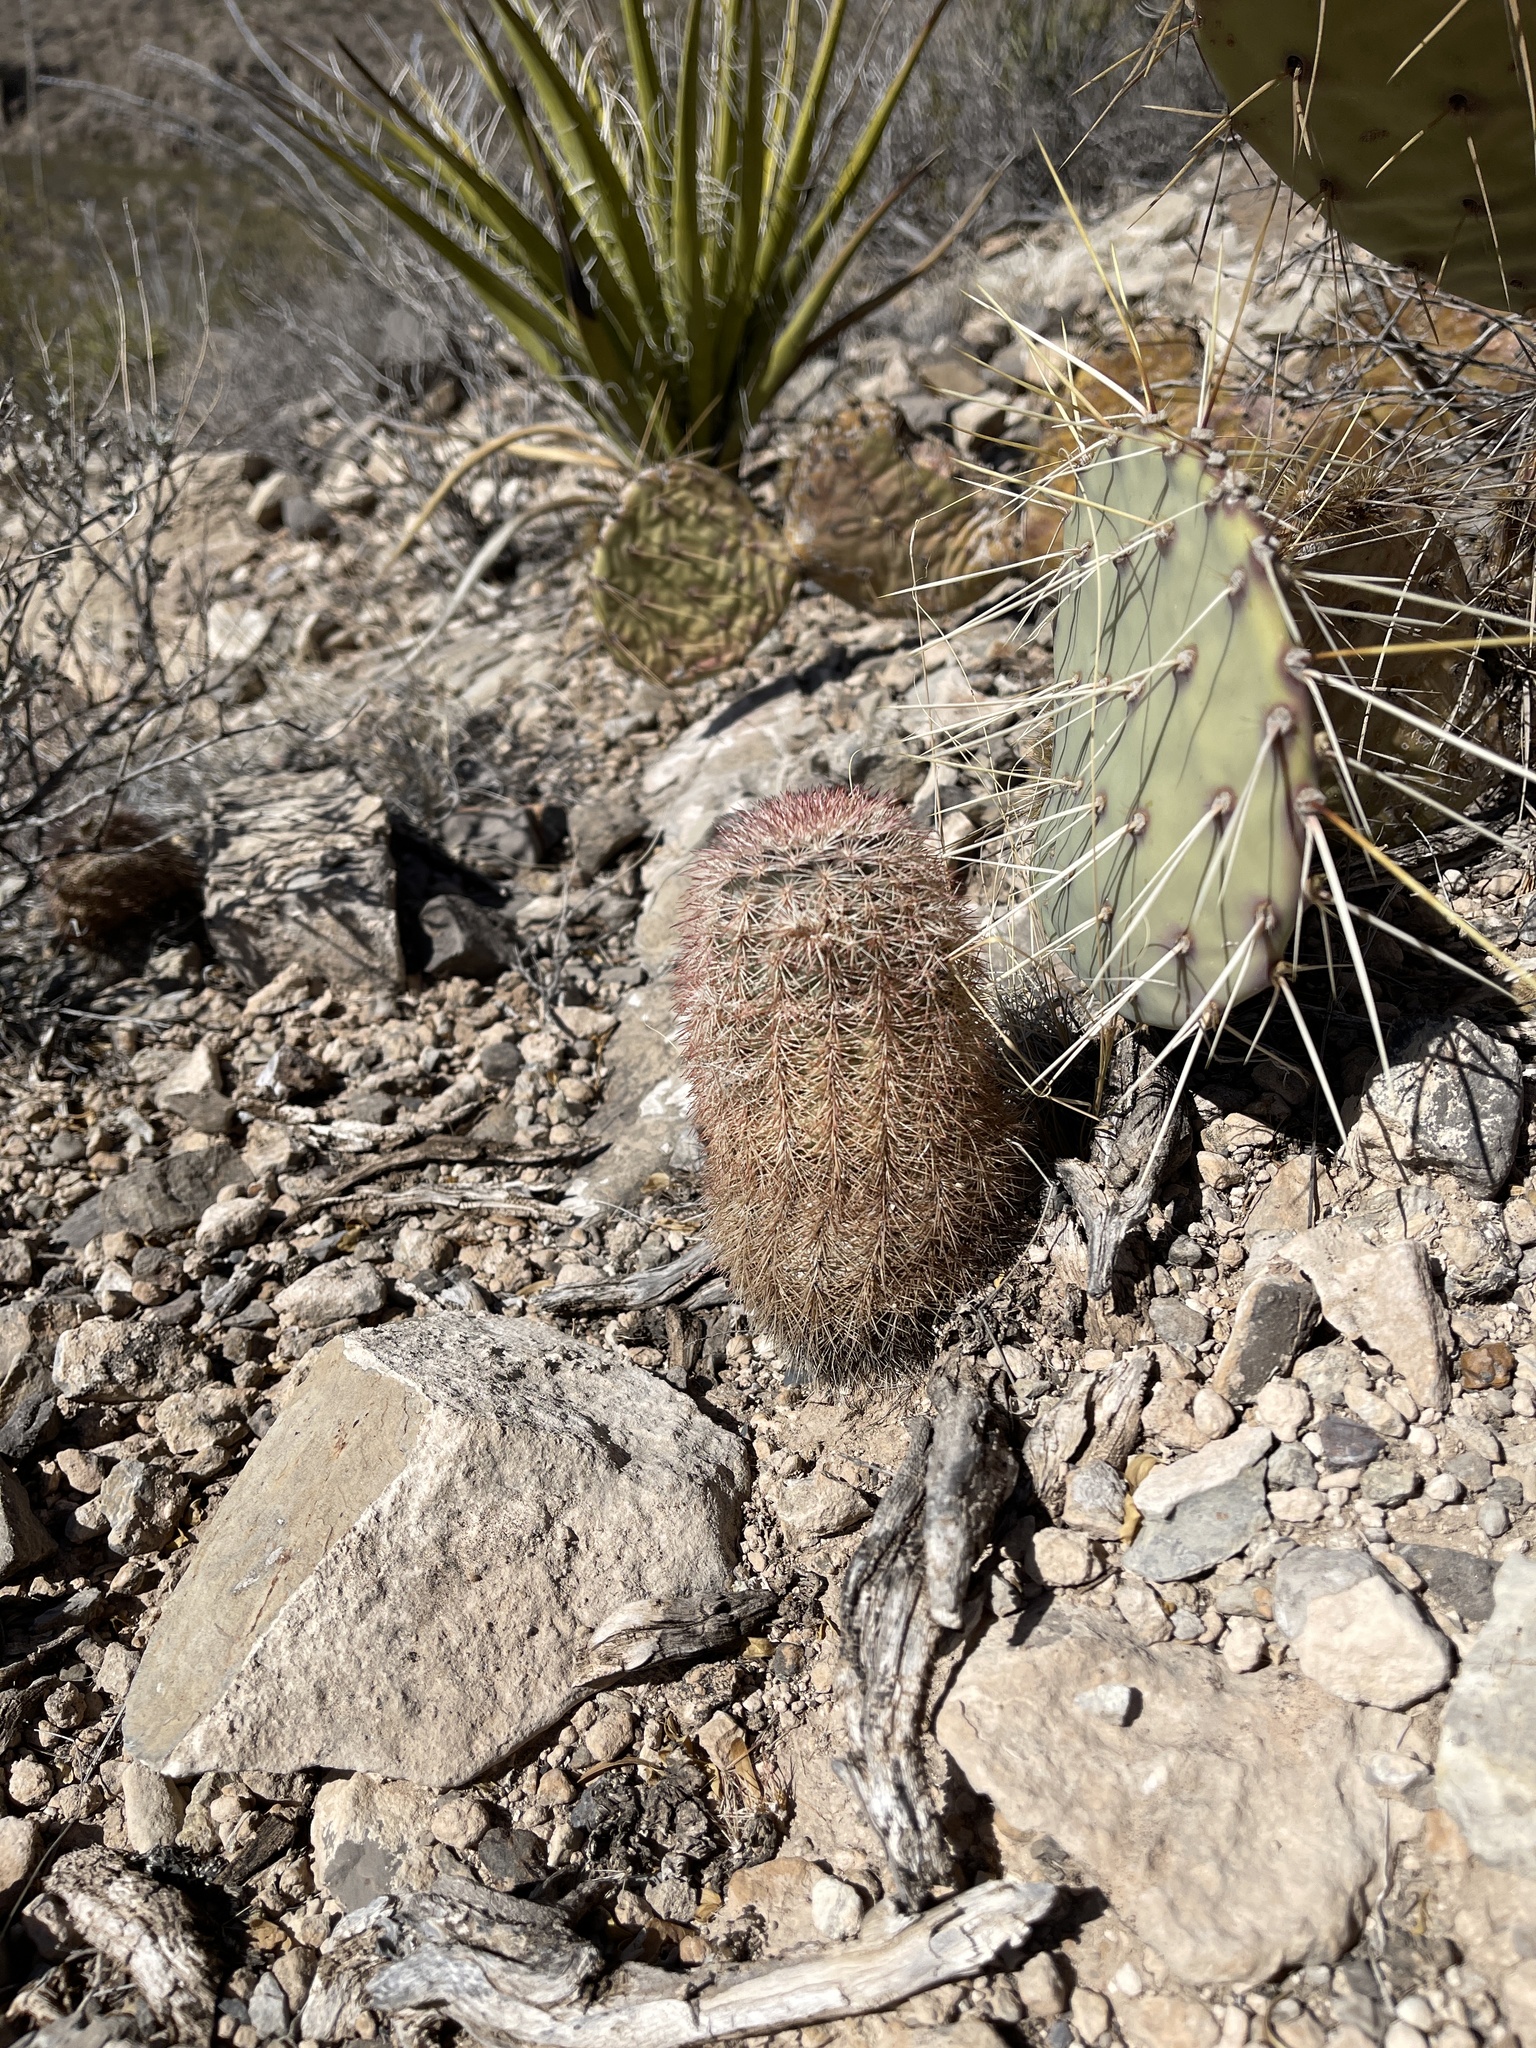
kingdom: Plantae
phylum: Tracheophyta
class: Magnoliopsida
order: Caryophyllales
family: Cactaceae
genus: Echinocereus
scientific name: Echinocereus dasyacanthus
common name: Spiny hedgehog cactus
